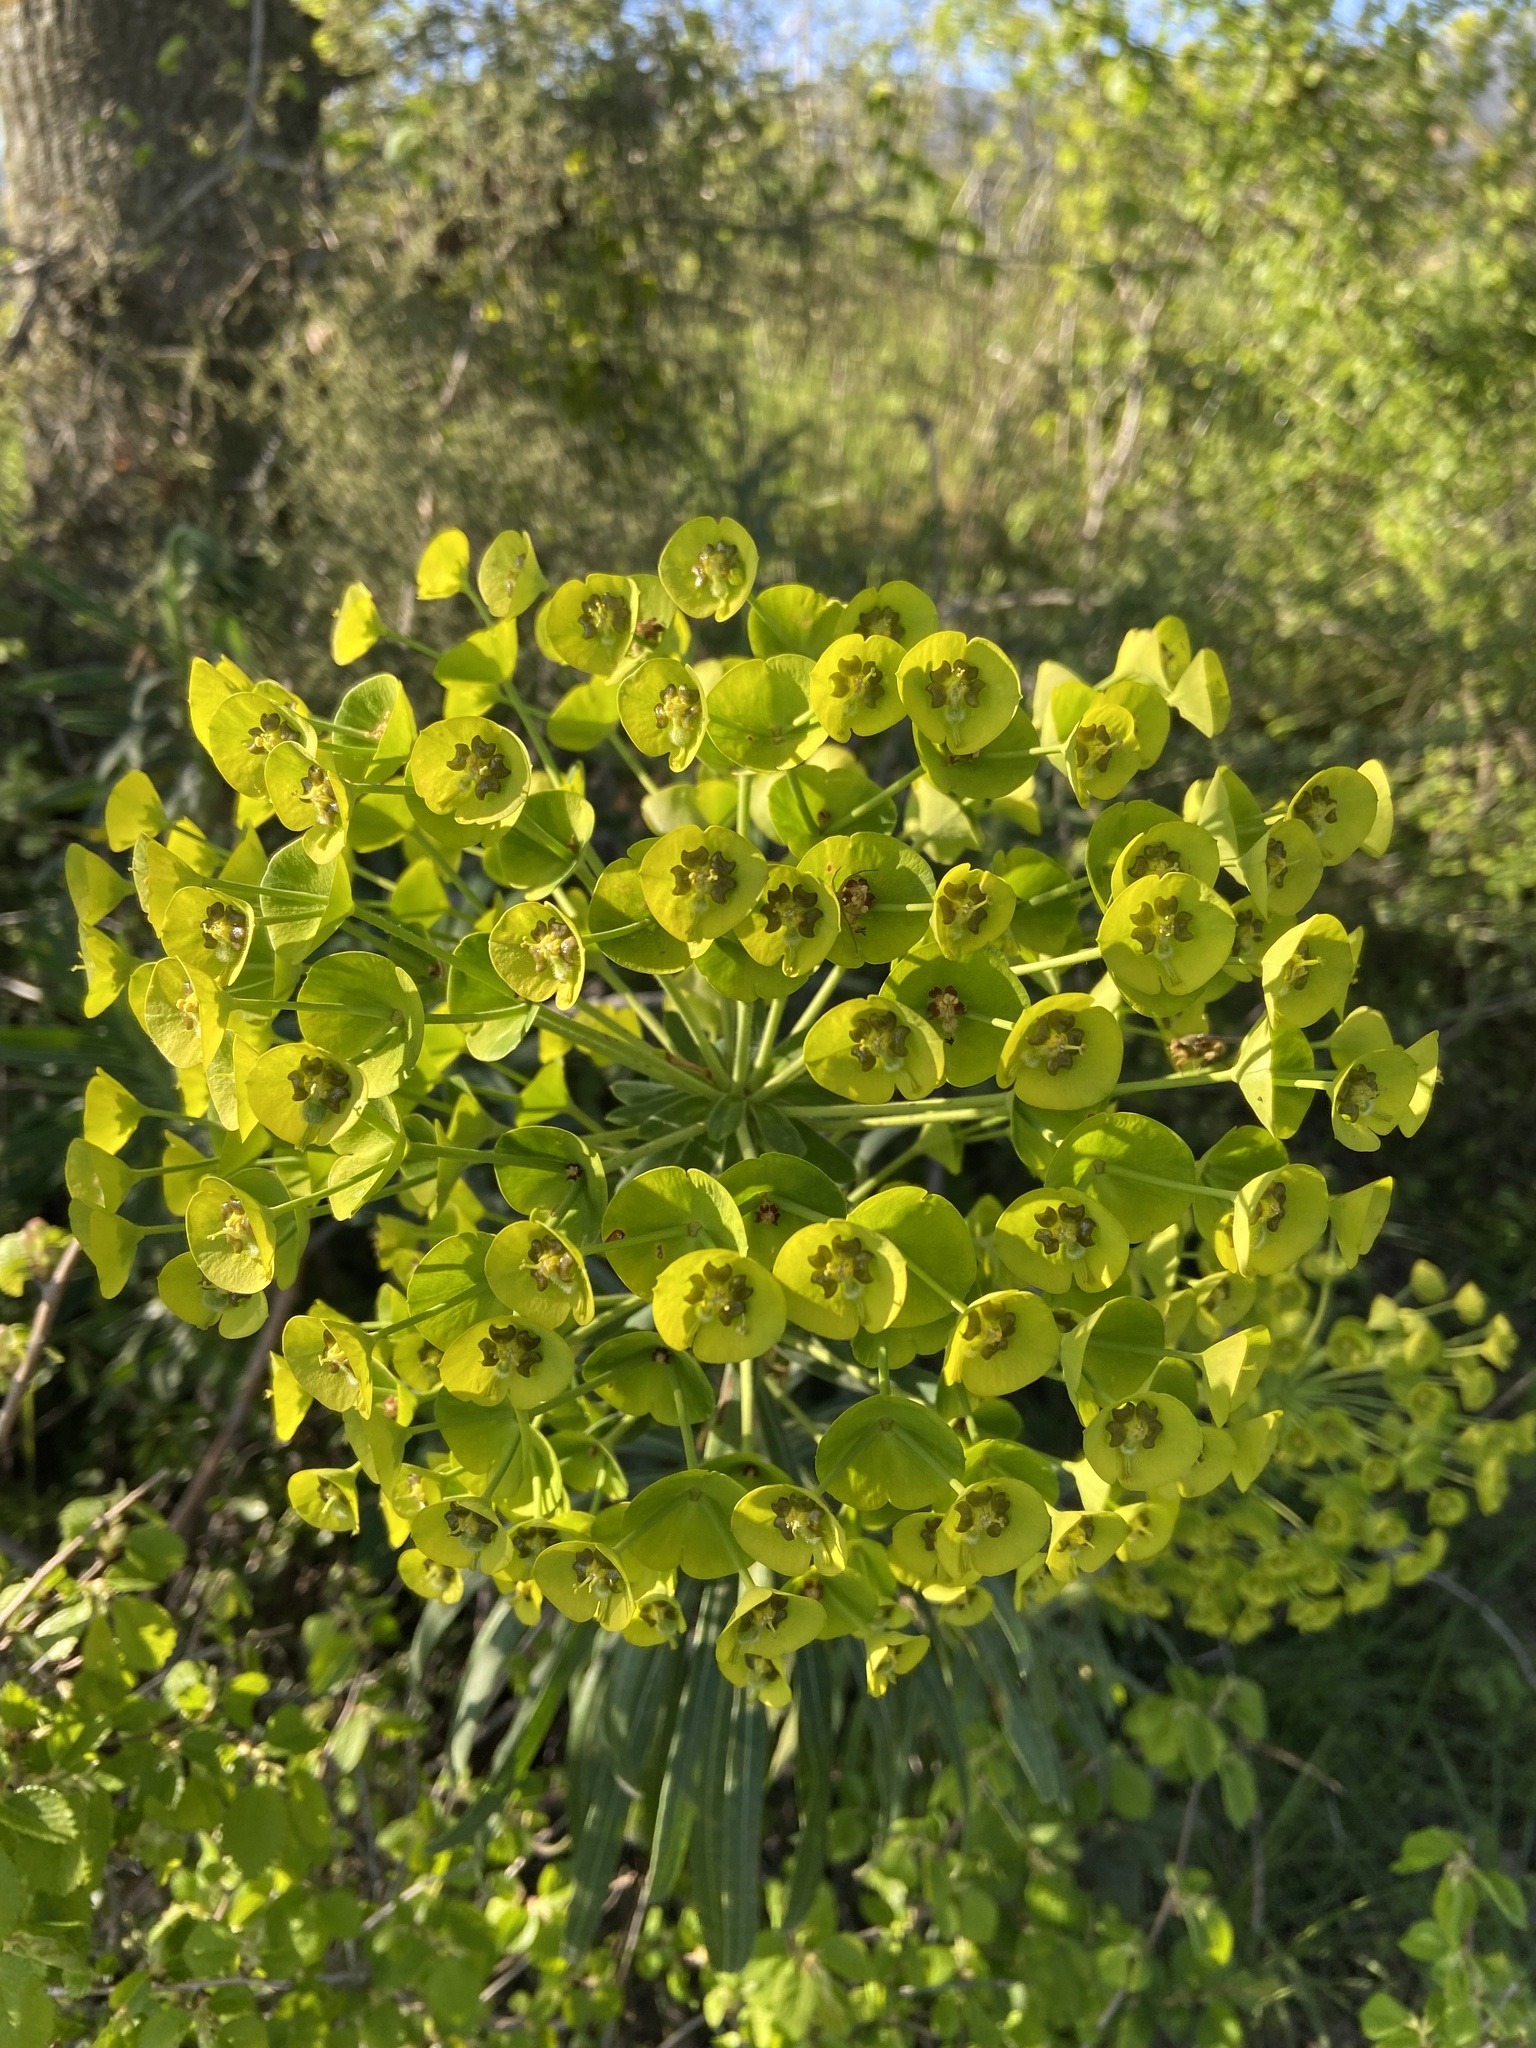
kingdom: Plantae
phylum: Tracheophyta
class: Magnoliopsida
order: Malpighiales
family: Euphorbiaceae
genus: Euphorbia
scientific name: Euphorbia characias
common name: Mediterranean spurge
